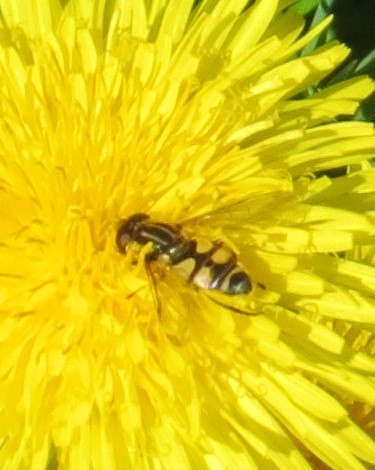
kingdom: Animalia
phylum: Arthropoda
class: Insecta
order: Diptera
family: Syrphidae
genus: Helophilus
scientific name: Helophilus fasciatus
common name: Narrow-headed marsh fly
